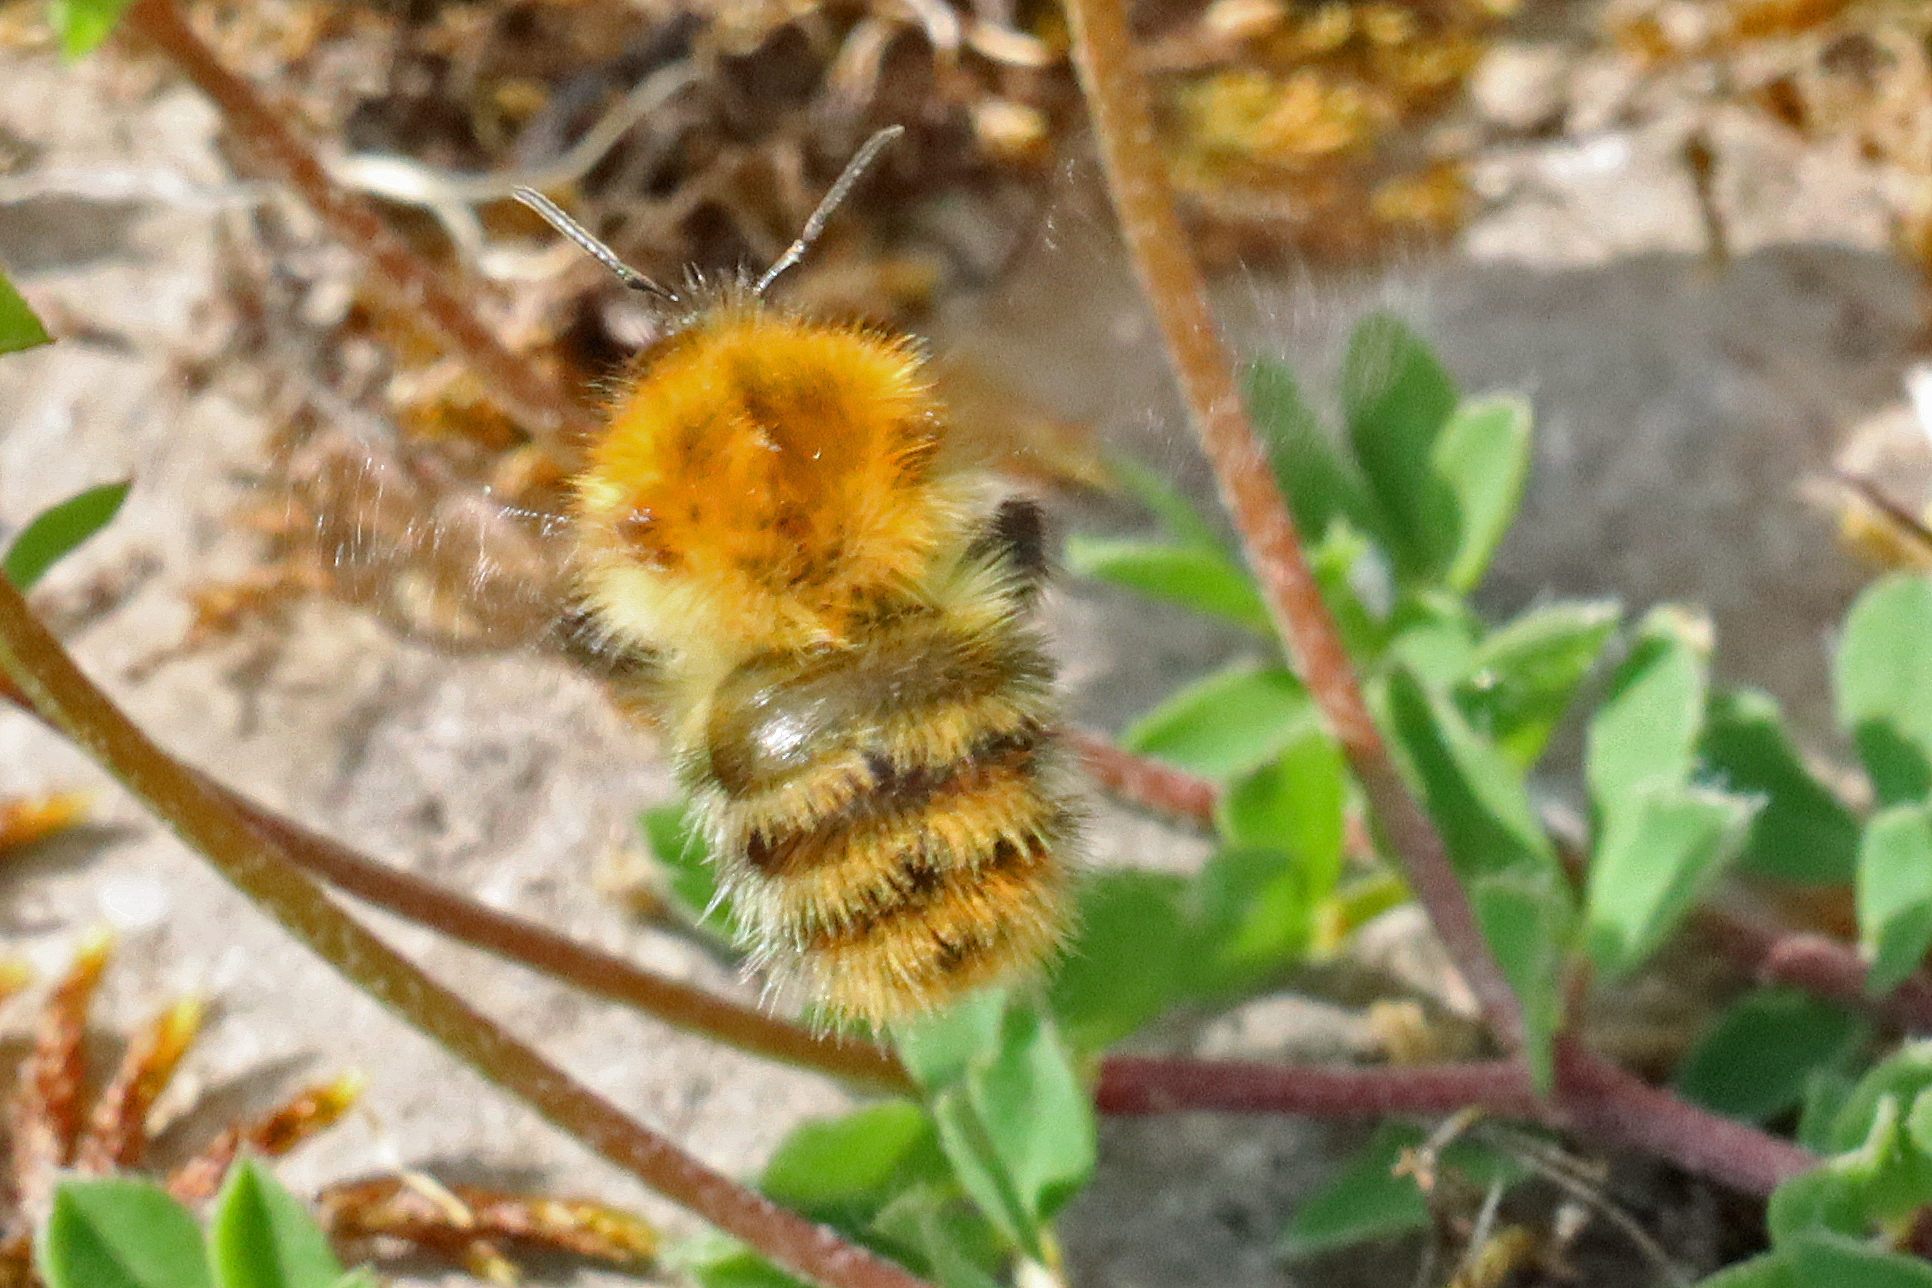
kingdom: Animalia
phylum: Arthropoda
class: Insecta
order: Hymenoptera
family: Apidae
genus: Bombus
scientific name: Bombus pascuorum
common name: Common carder bee
